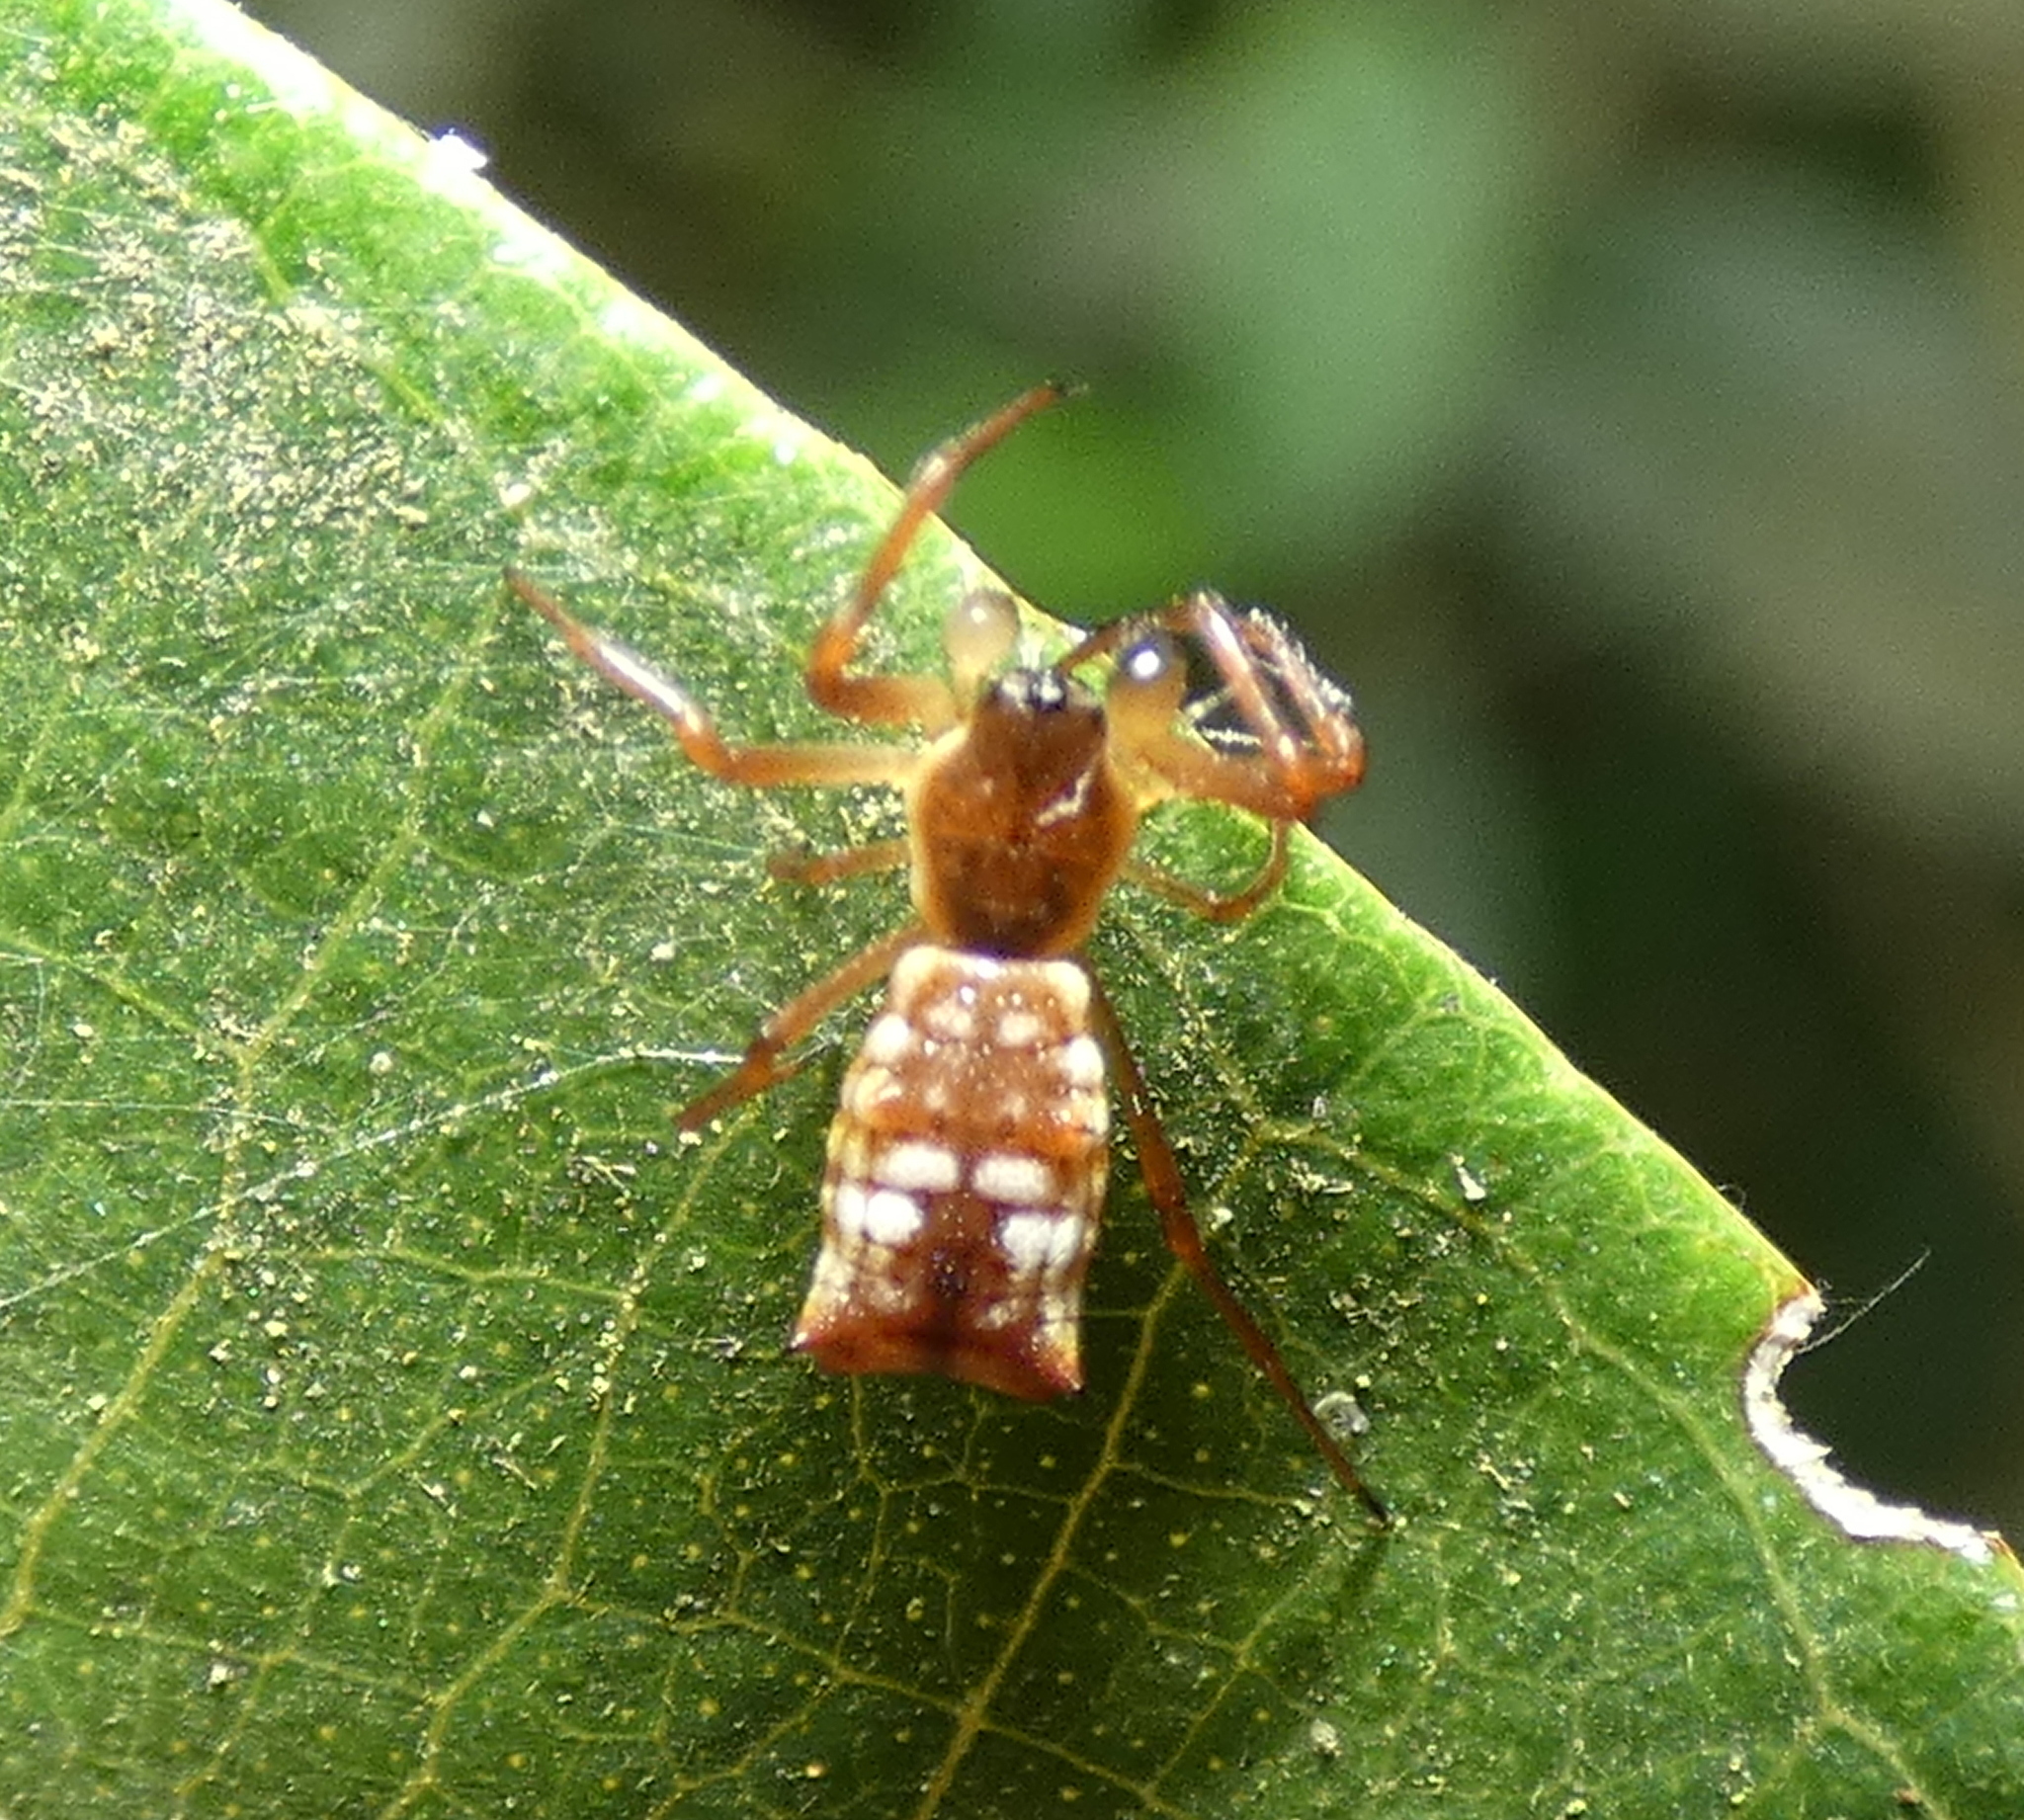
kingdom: Animalia
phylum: Arthropoda
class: Arachnida
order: Araneae
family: Araneidae
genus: Micrathena
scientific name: Micrathena fissispina
